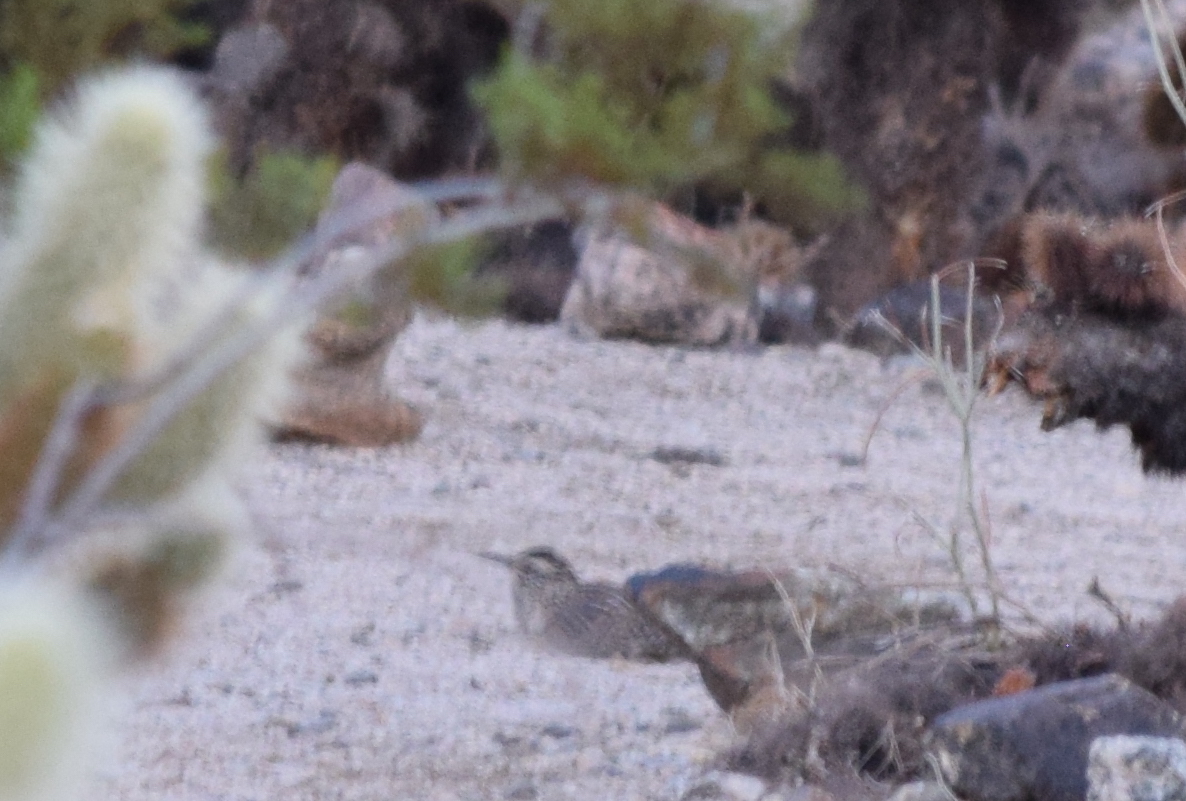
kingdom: Animalia
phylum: Chordata
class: Aves
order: Passeriformes
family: Troglodytidae
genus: Campylorhynchus
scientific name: Campylorhynchus brunneicapillus
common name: Cactus wren
